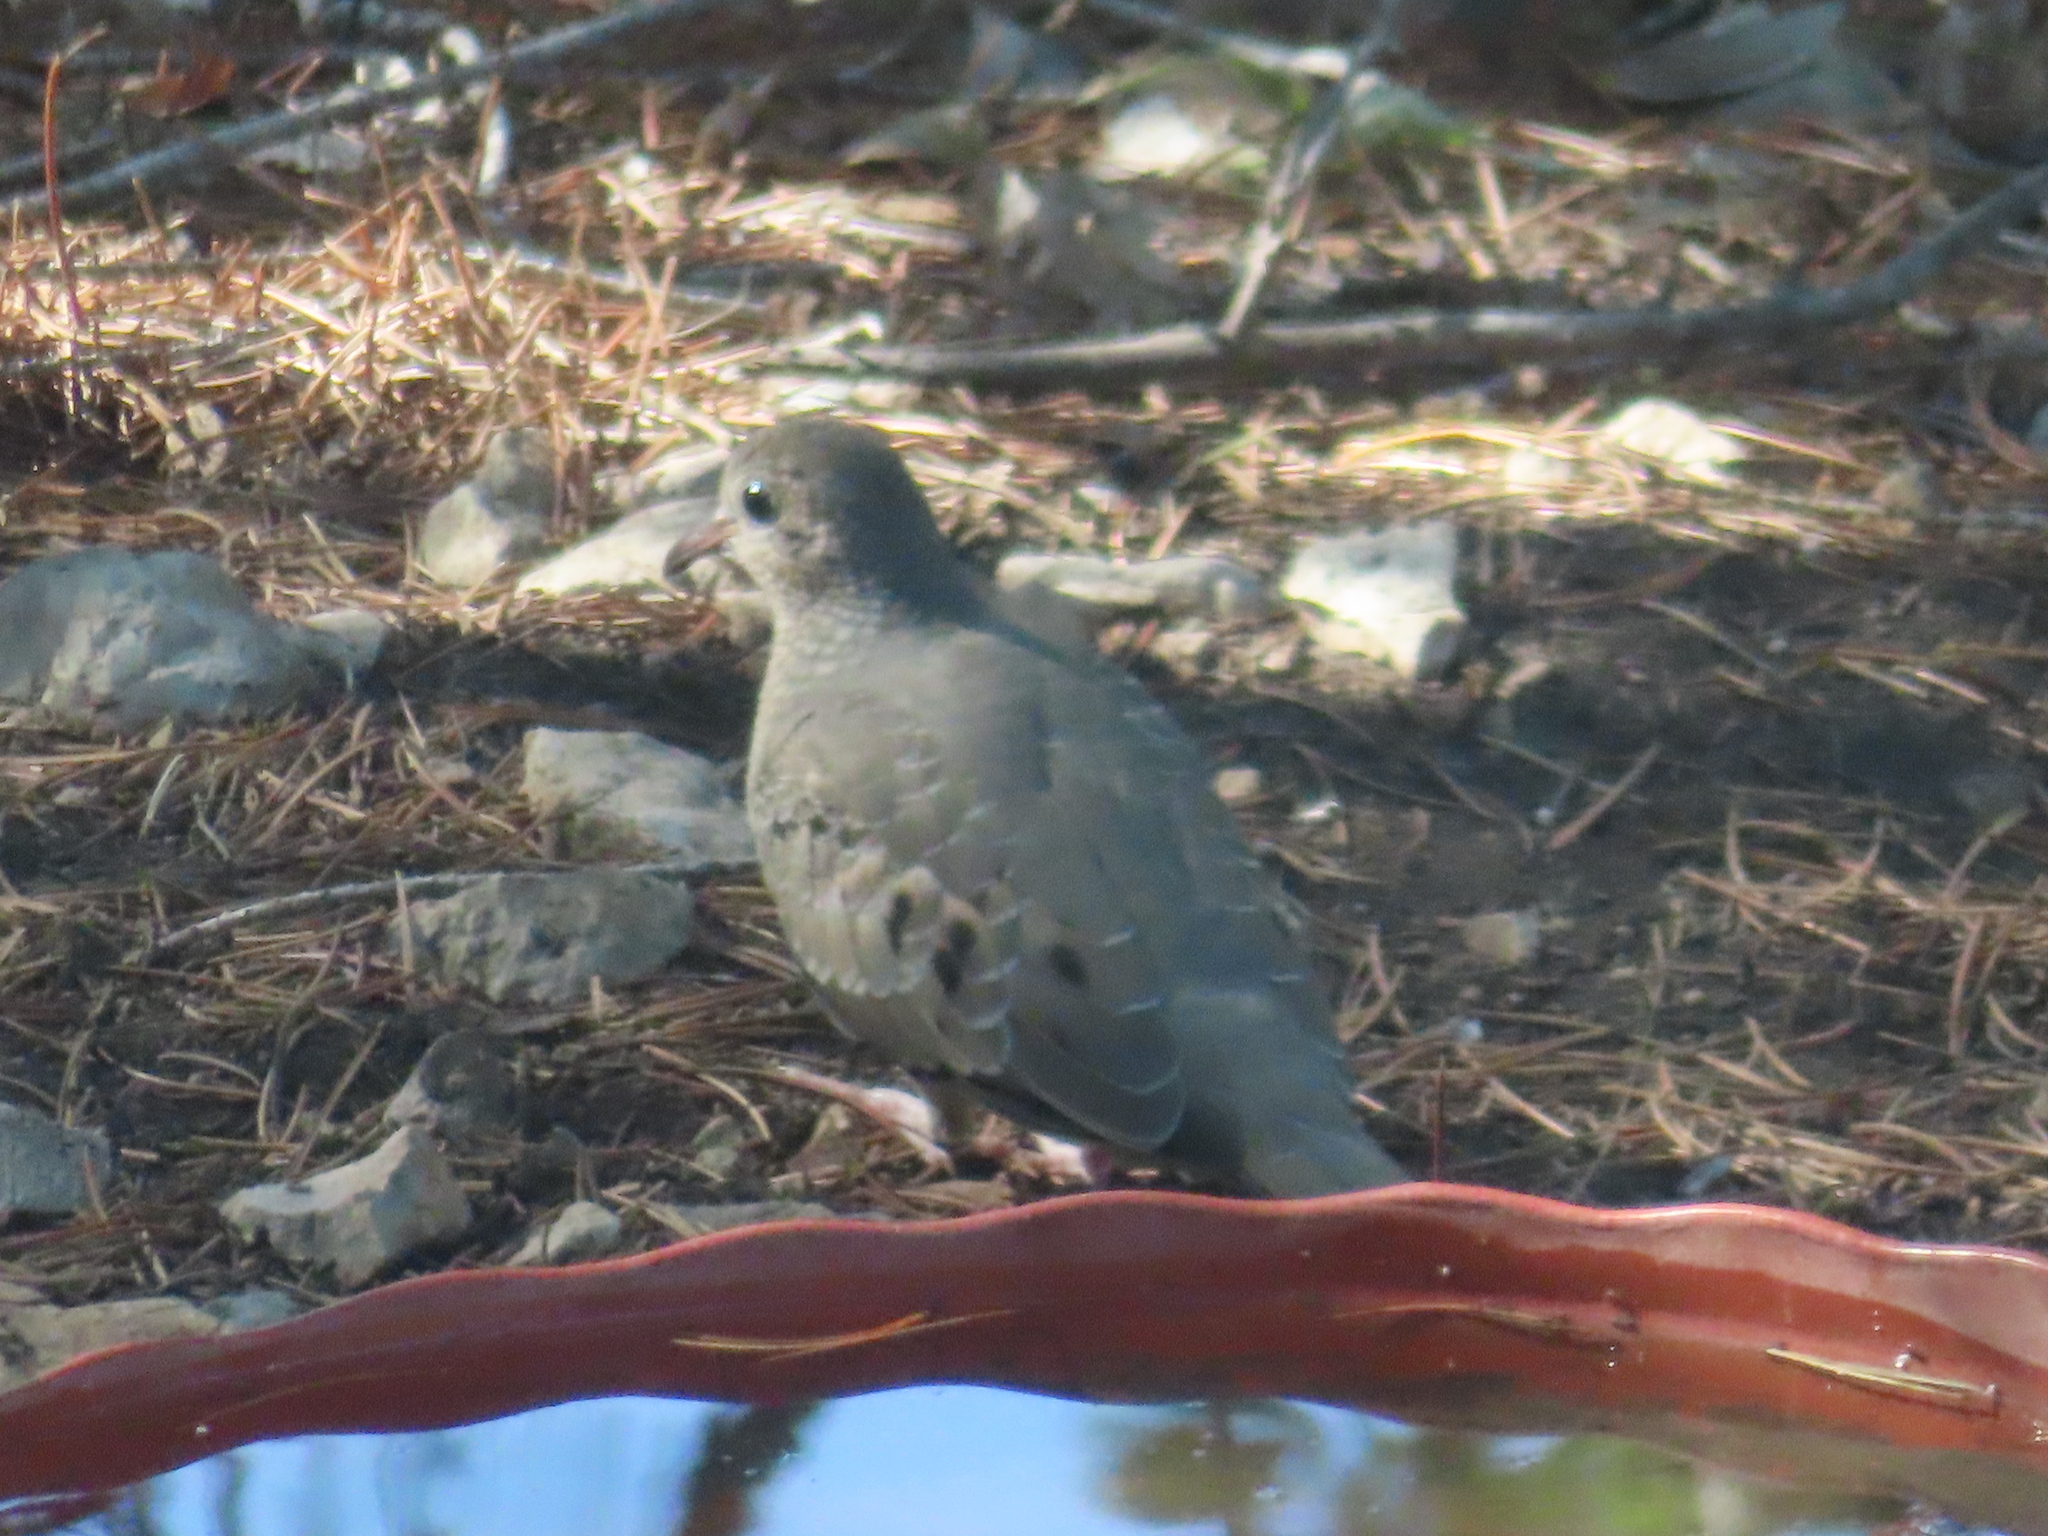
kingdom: Animalia
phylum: Chordata
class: Aves
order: Columbiformes
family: Columbidae
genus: Columbina
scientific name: Columbina passerina
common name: Common ground-dove
